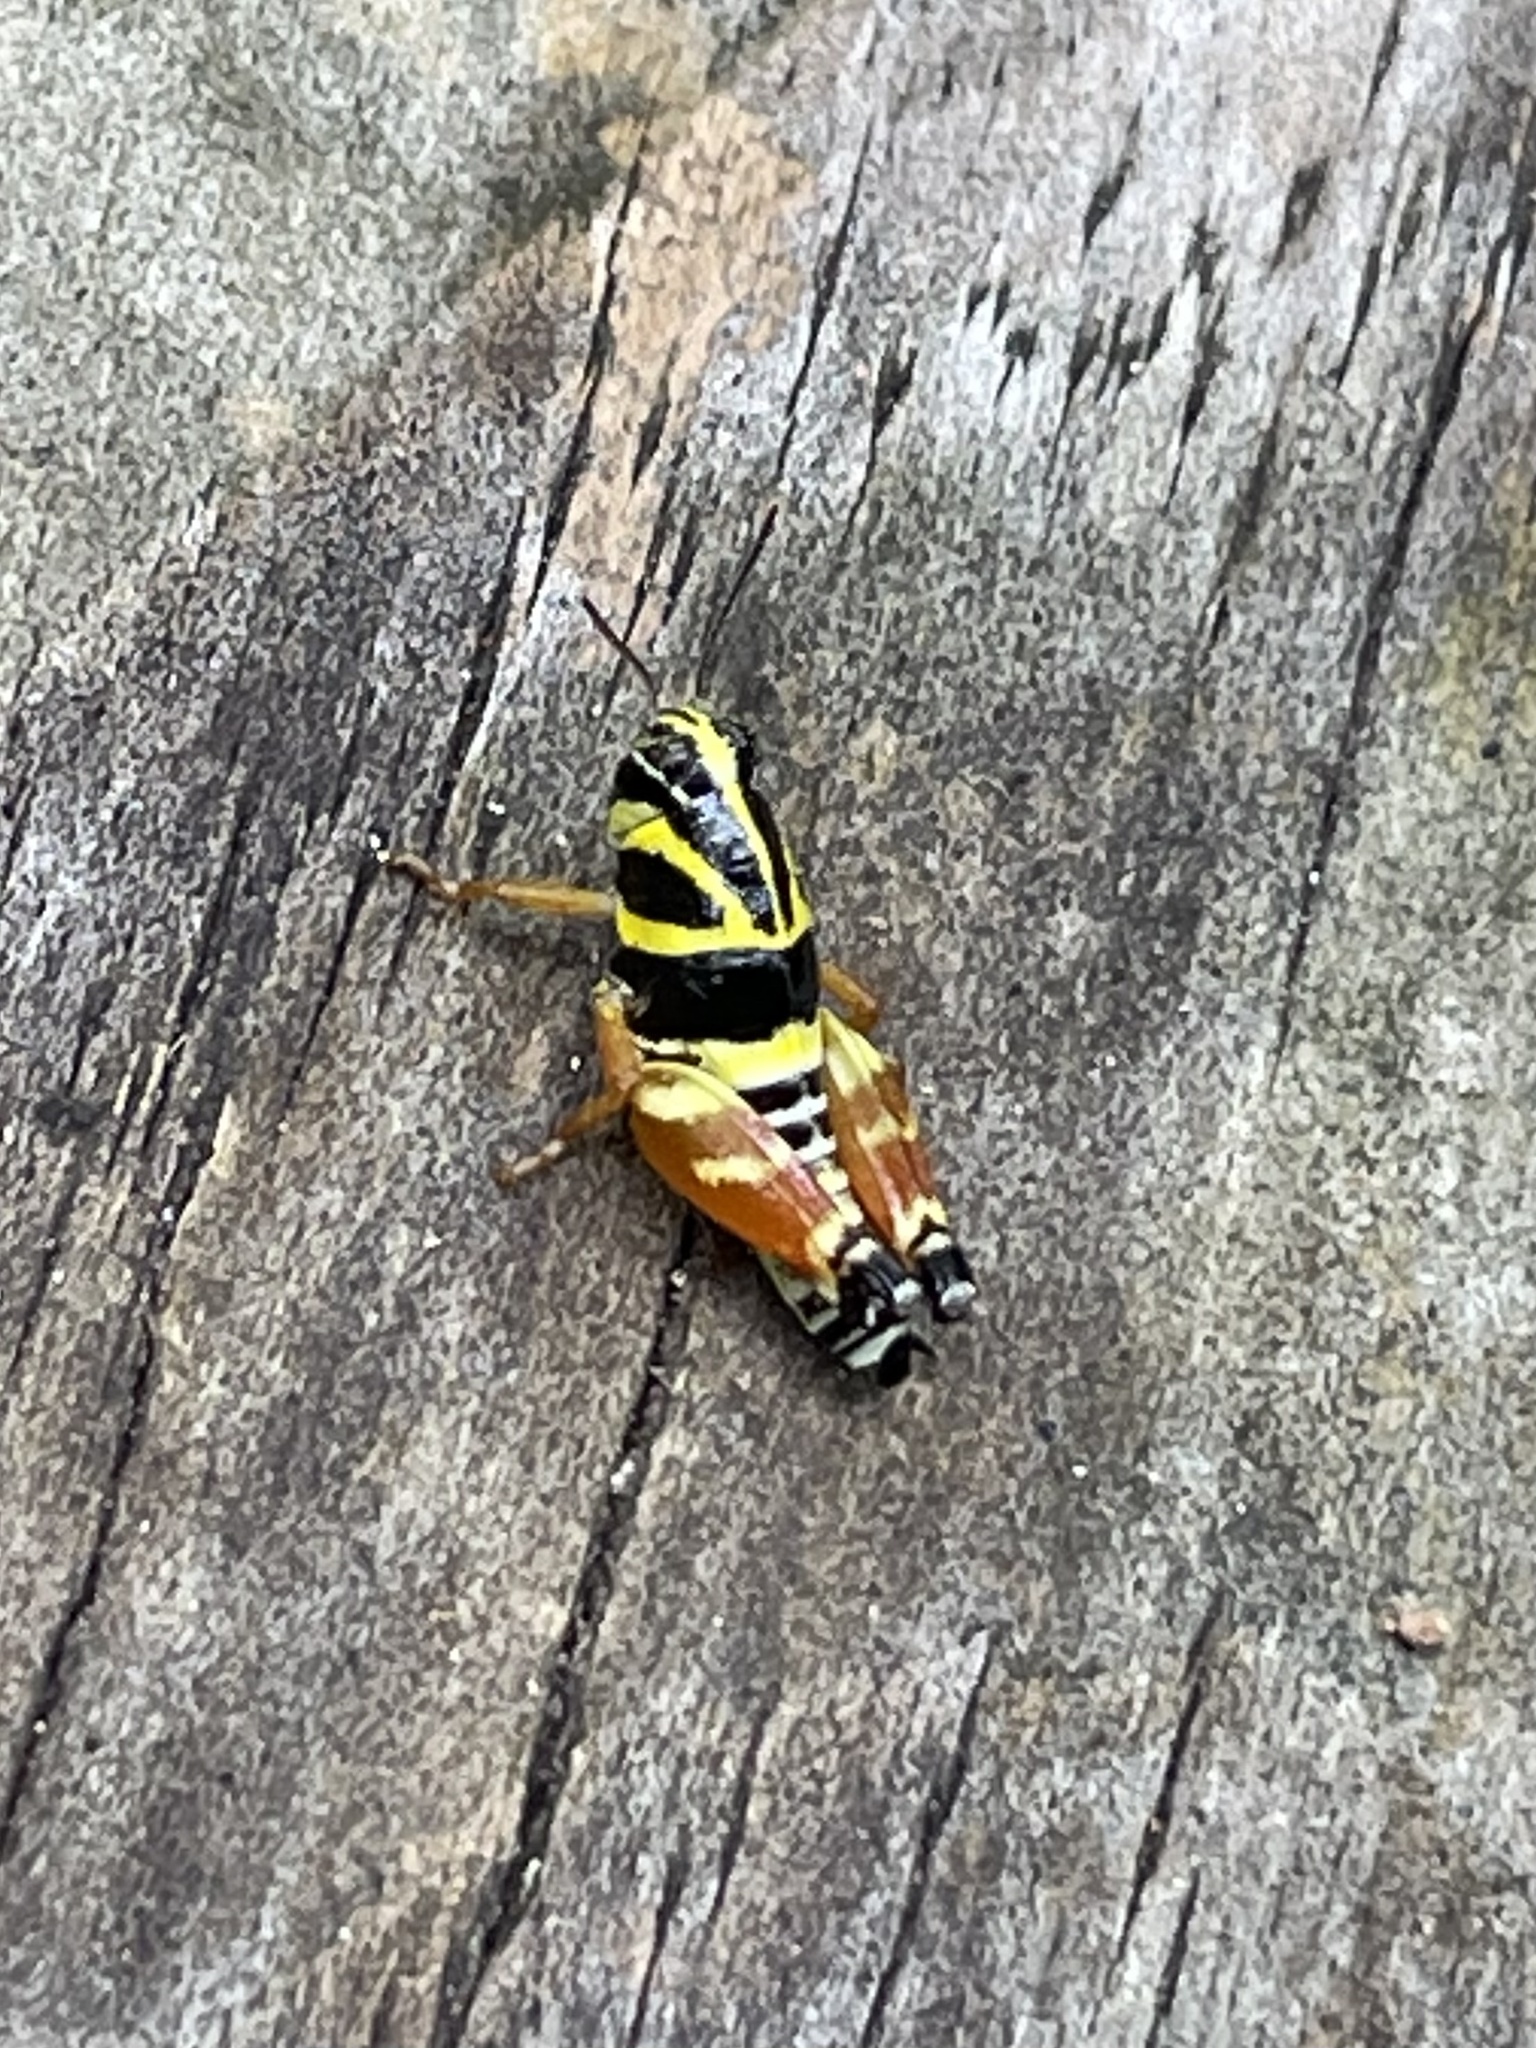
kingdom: Animalia
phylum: Arthropoda
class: Insecta
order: Orthoptera
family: Acrididae
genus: Aidemona
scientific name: Aidemona azteca
